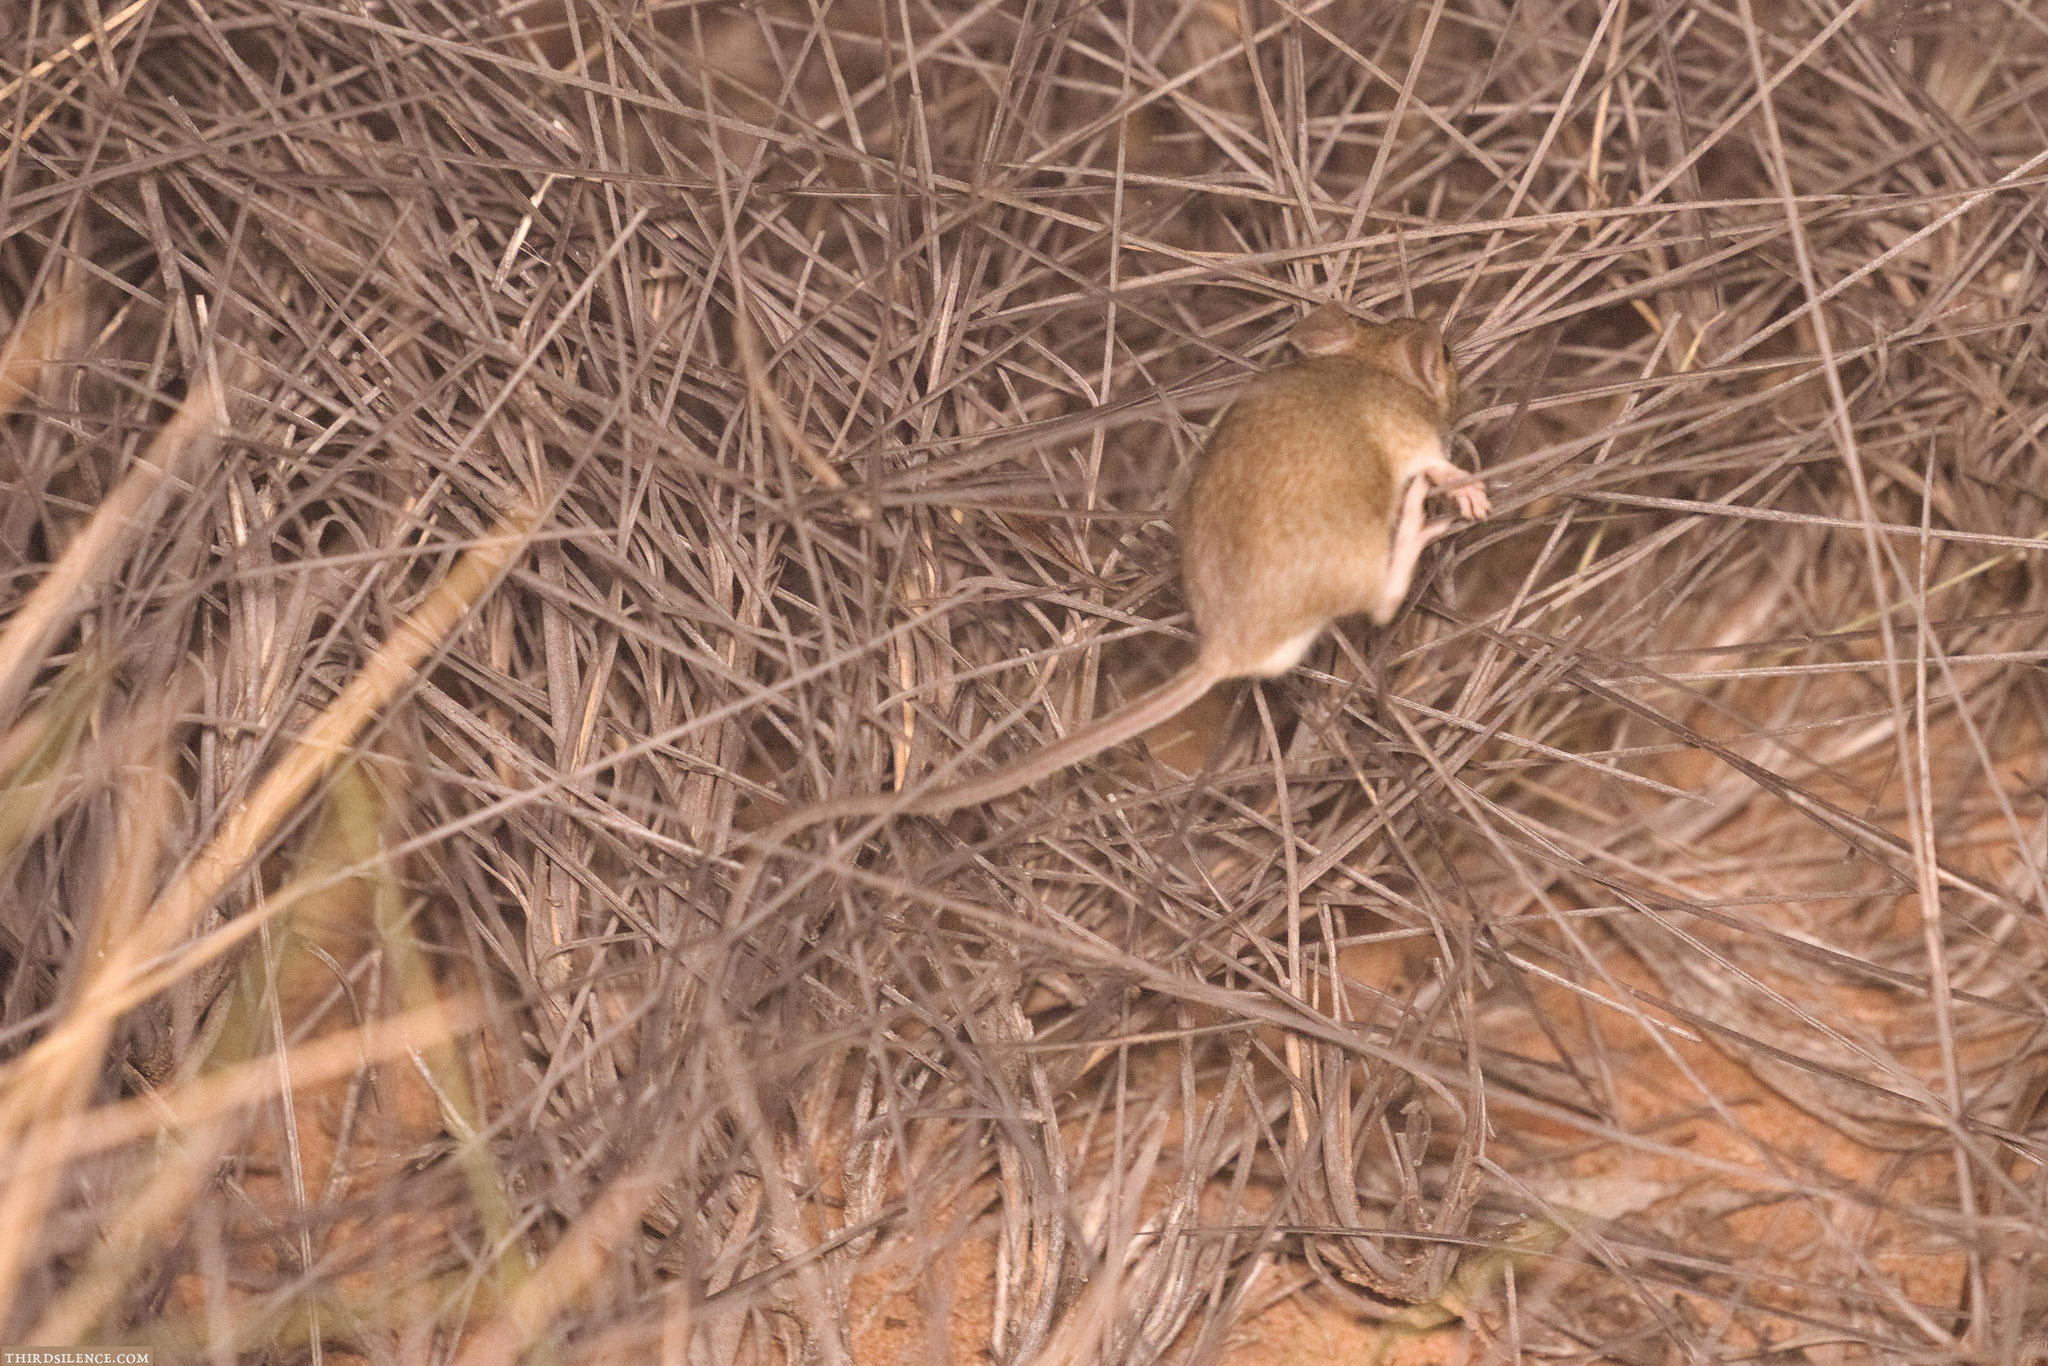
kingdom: Animalia
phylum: Chordata
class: Mammalia
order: Rodentia
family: Muridae
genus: Mus
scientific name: Mus musculus
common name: House mouse
